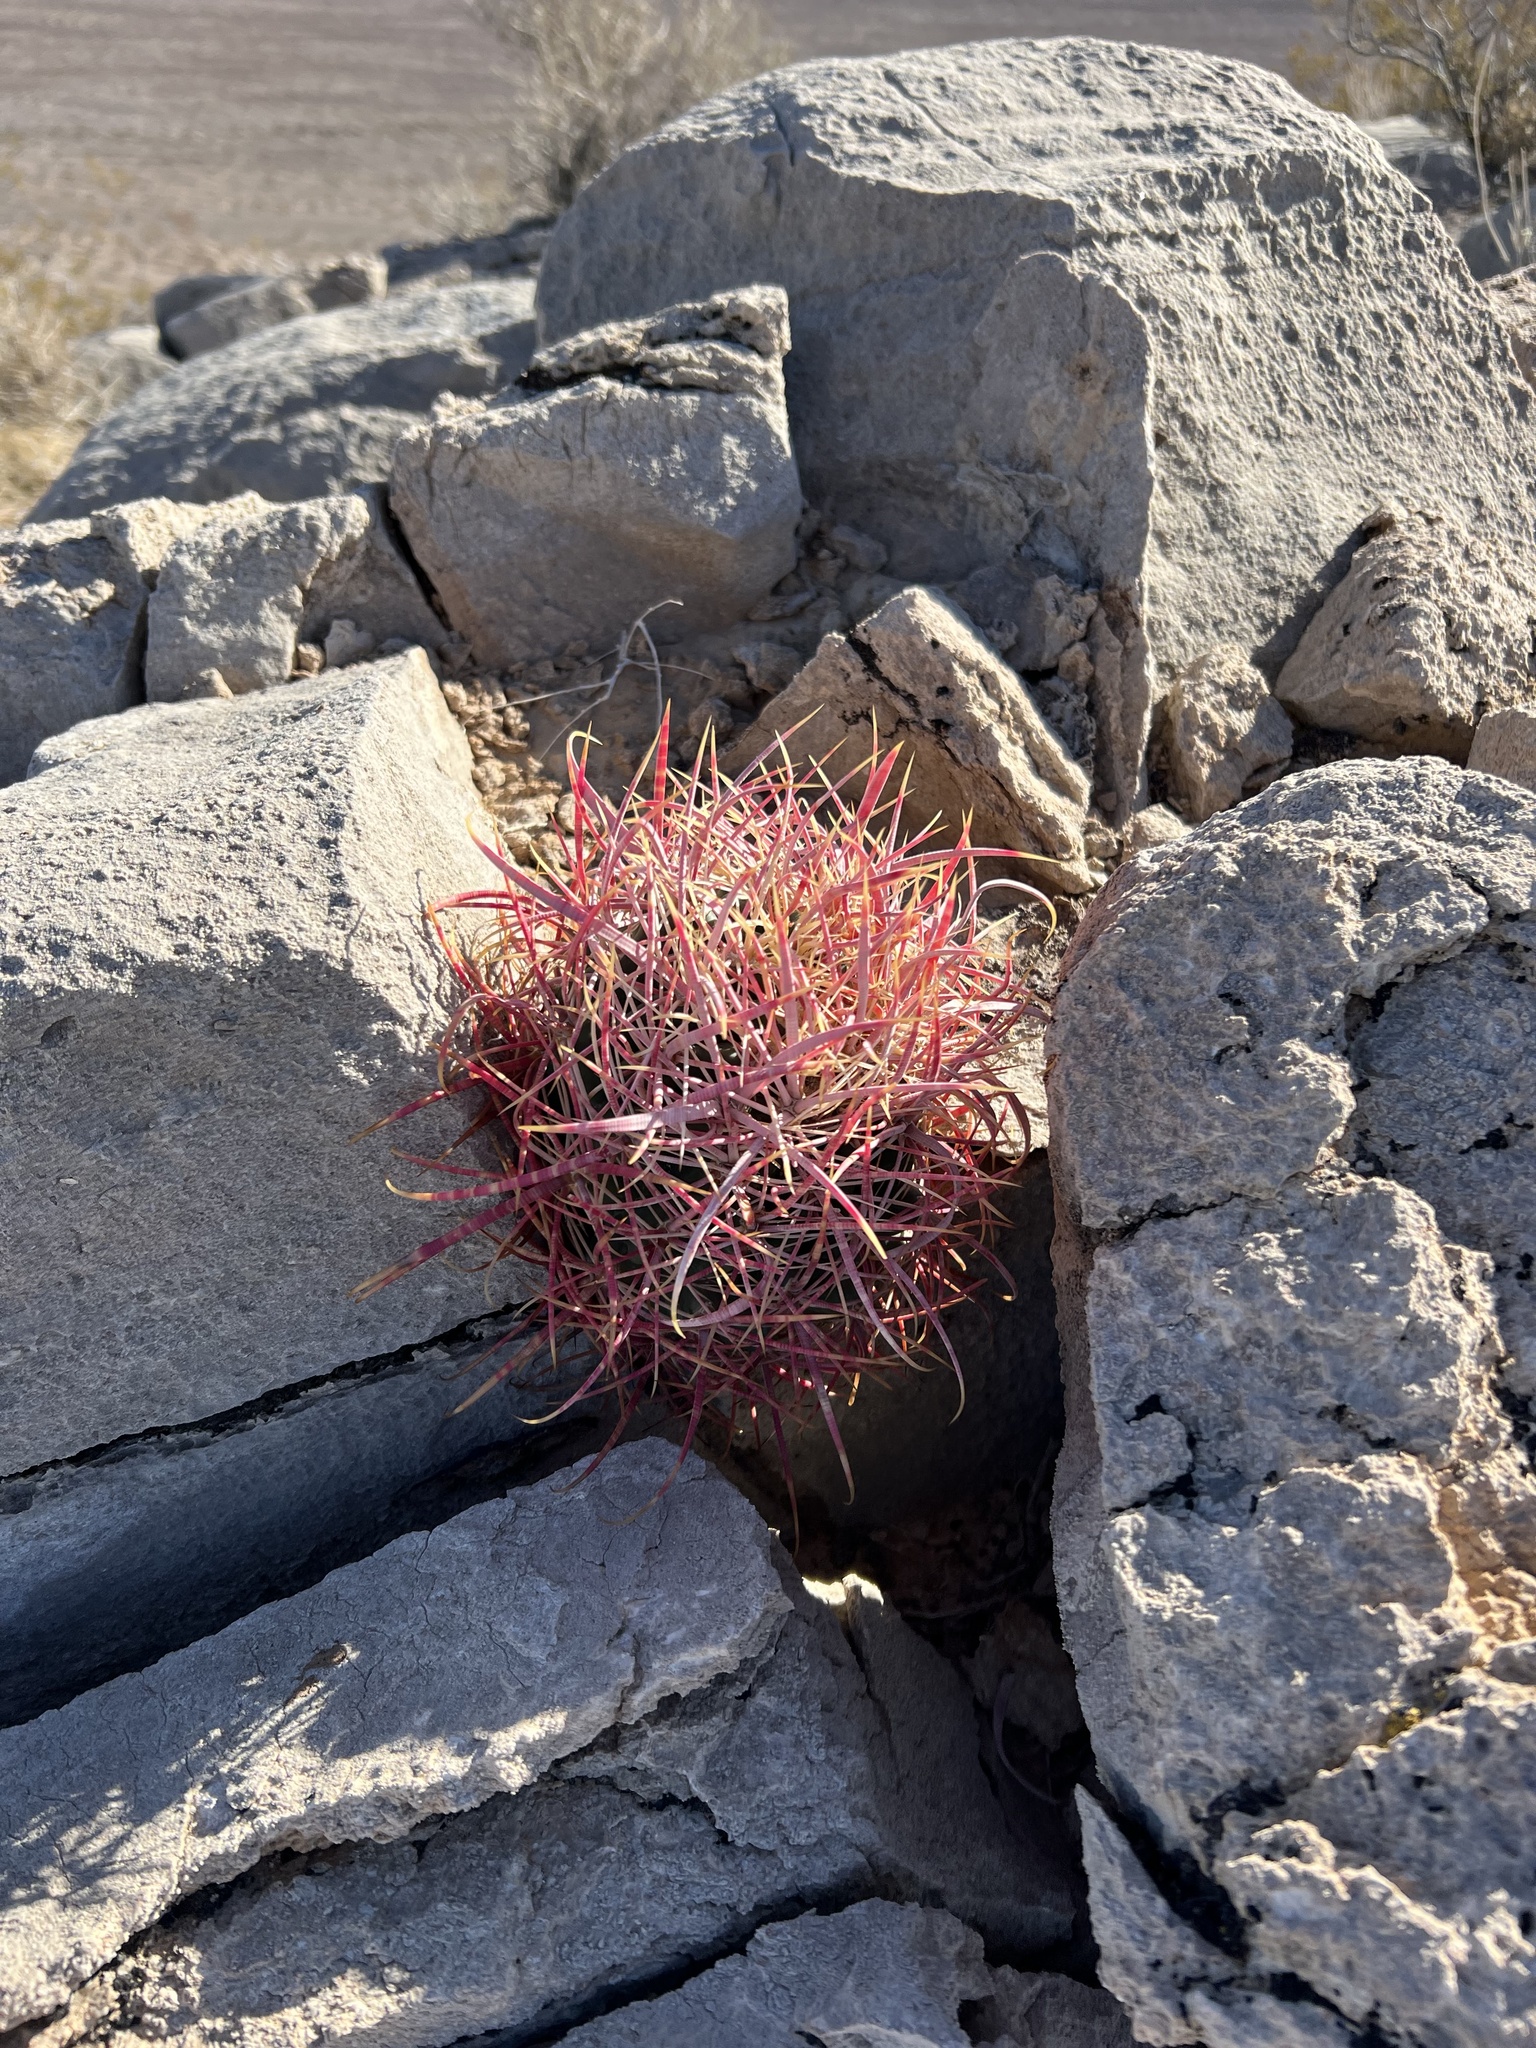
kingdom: Plantae
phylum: Tracheophyta
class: Magnoliopsida
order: Caryophyllales
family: Cactaceae
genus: Ferocactus
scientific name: Ferocactus cylindraceus
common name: California barrel cactus
